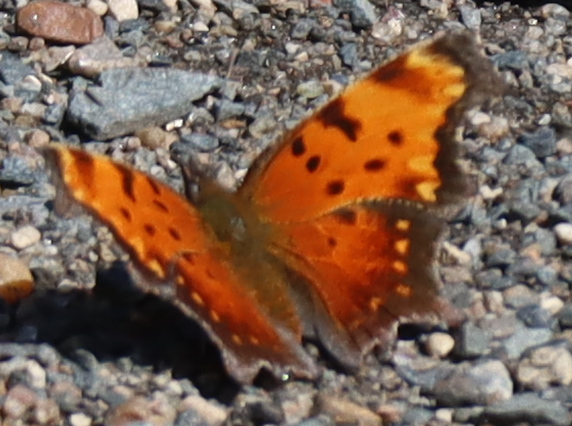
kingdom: Animalia
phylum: Arthropoda
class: Insecta
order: Lepidoptera
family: Nymphalidae
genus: Polygonia
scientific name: Polygonia progne
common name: Gray comma
